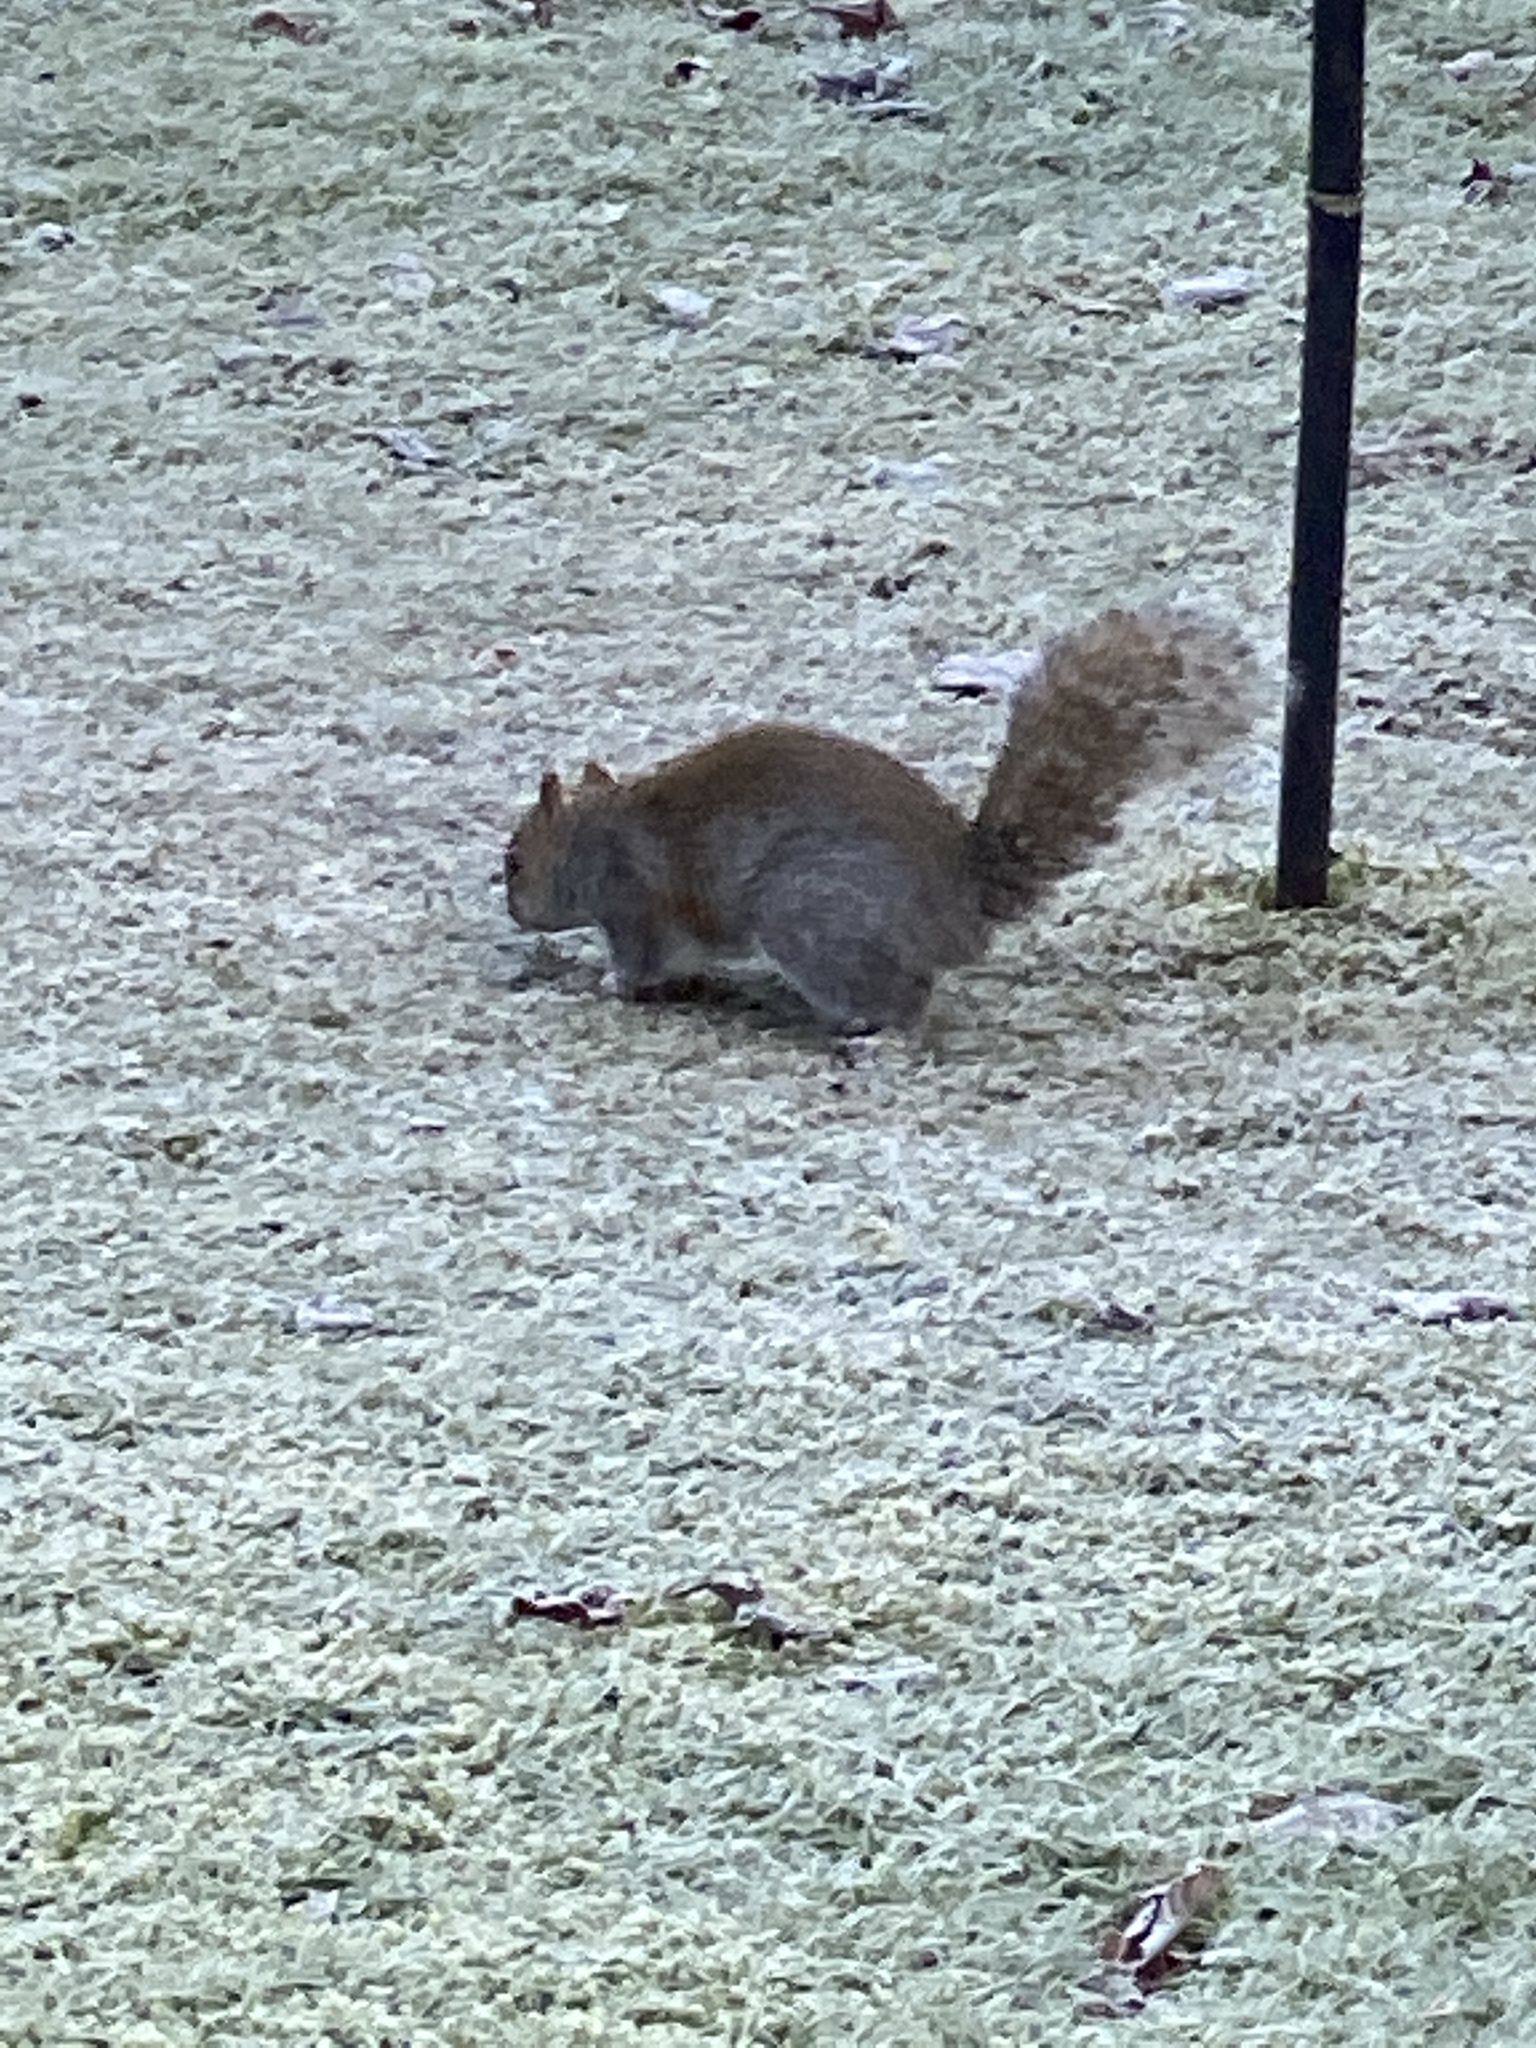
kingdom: Animalia
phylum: Chordata
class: Mammalia
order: Rodentia
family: Sciuridae
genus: Sciurus
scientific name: Sciurus carolinensis
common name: Eastern gray squirrel
